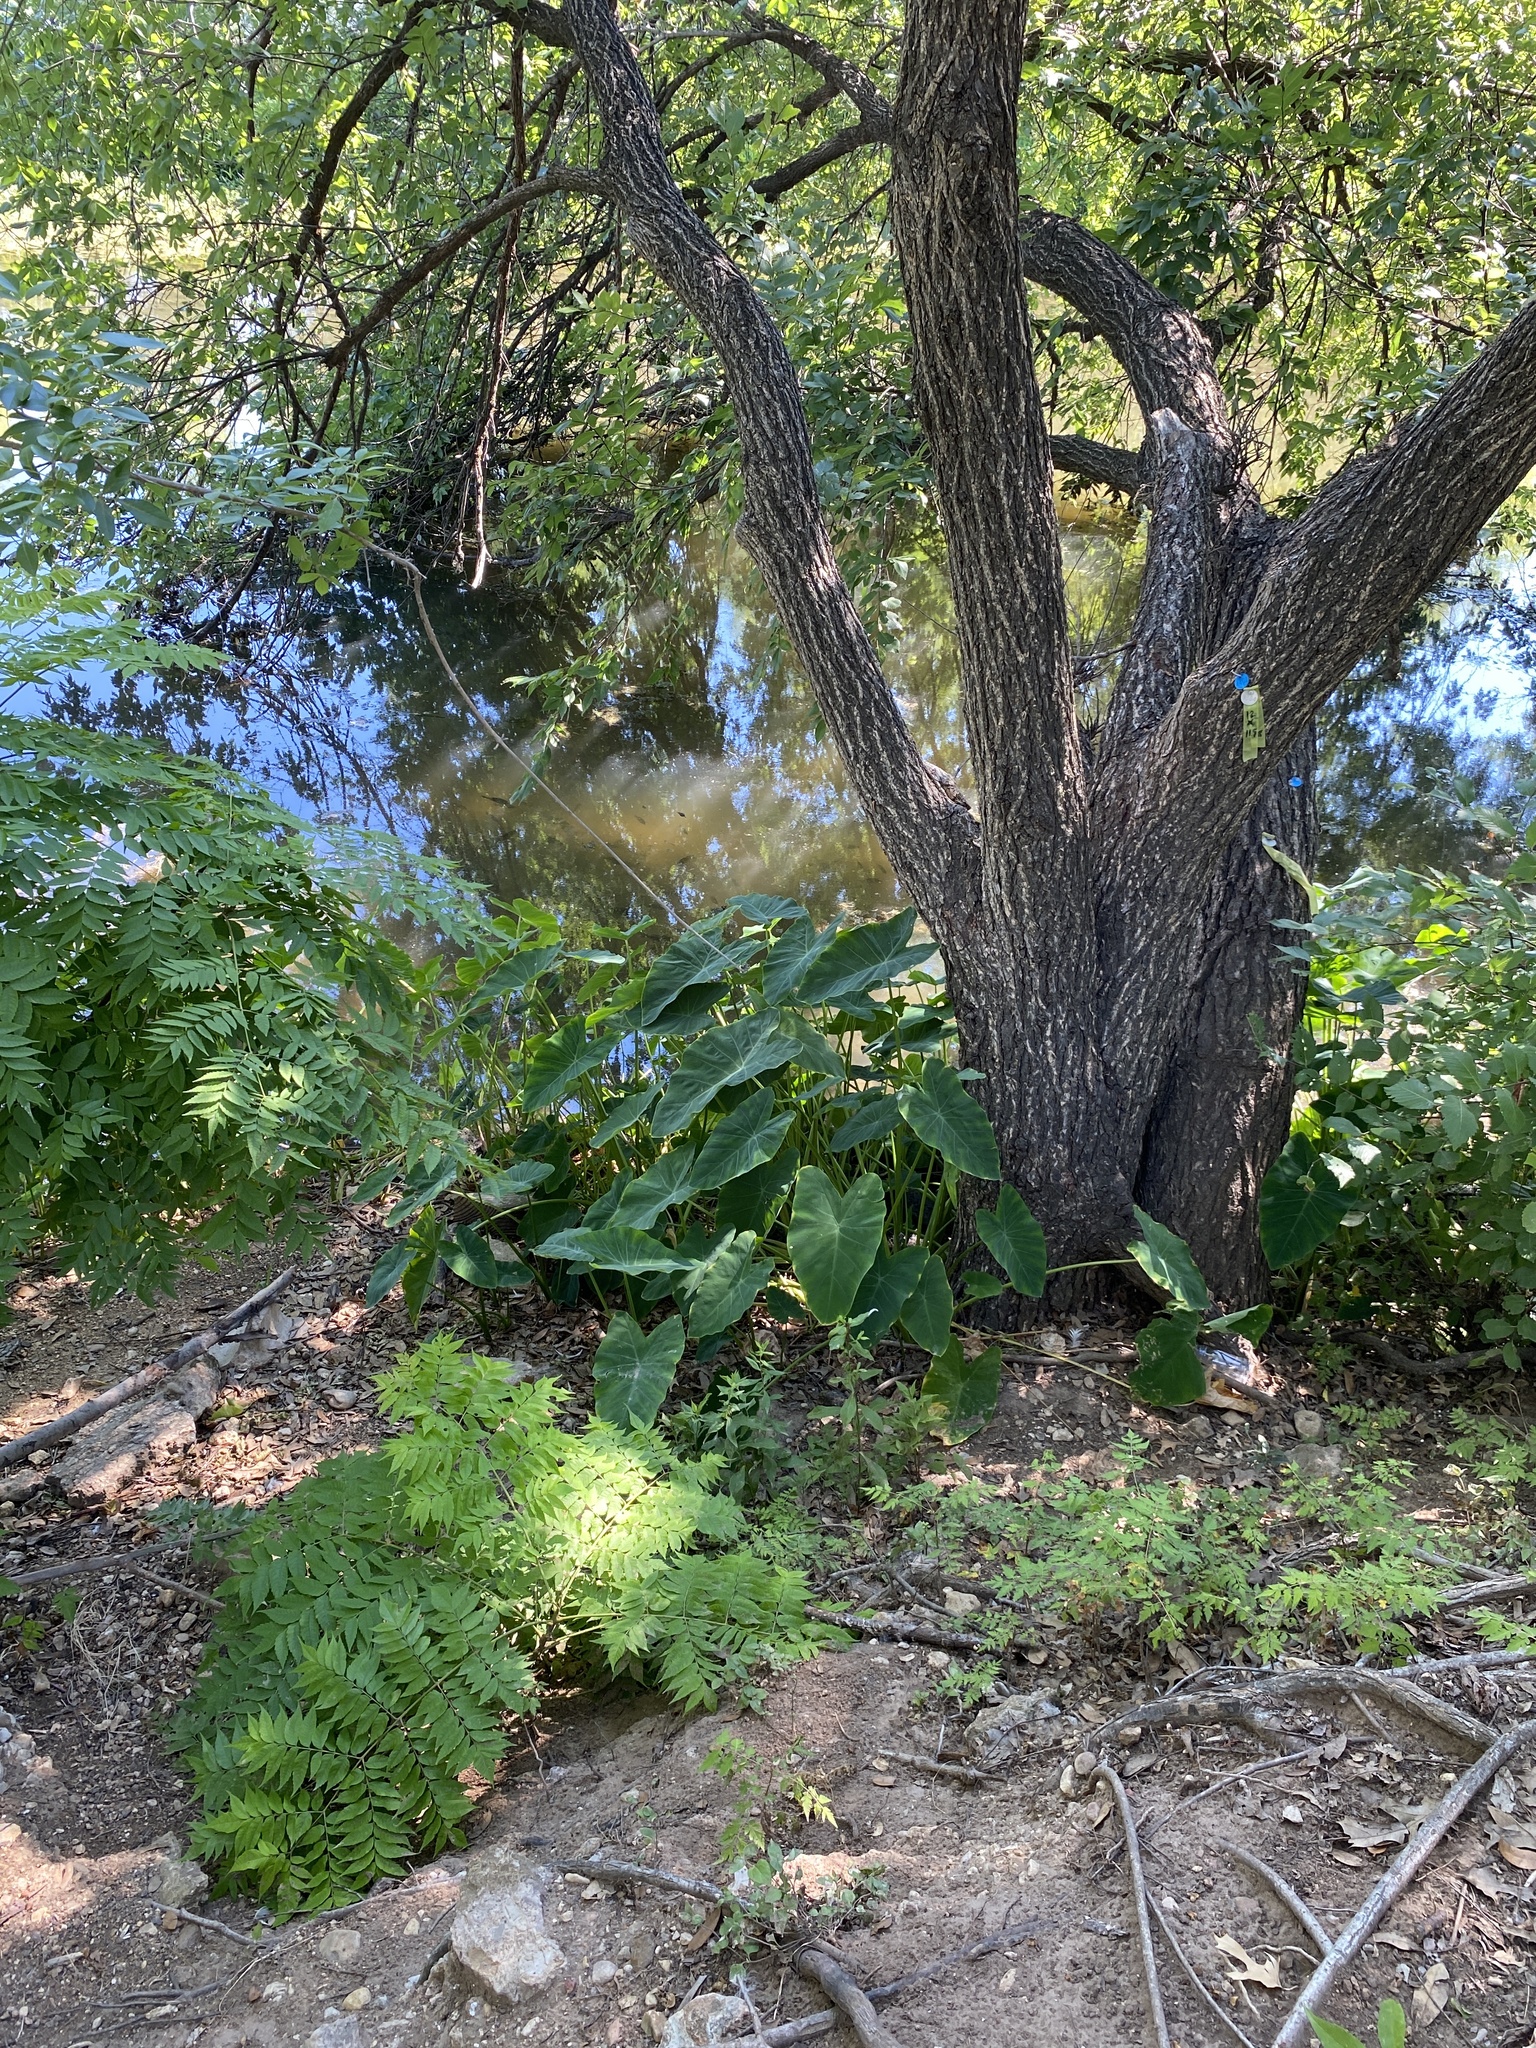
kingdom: Plantae
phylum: Tracheophyta
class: Liliopsida
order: Alismatales
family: Araceae
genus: Colocasia
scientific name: Colocasia esculenta
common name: Taro
